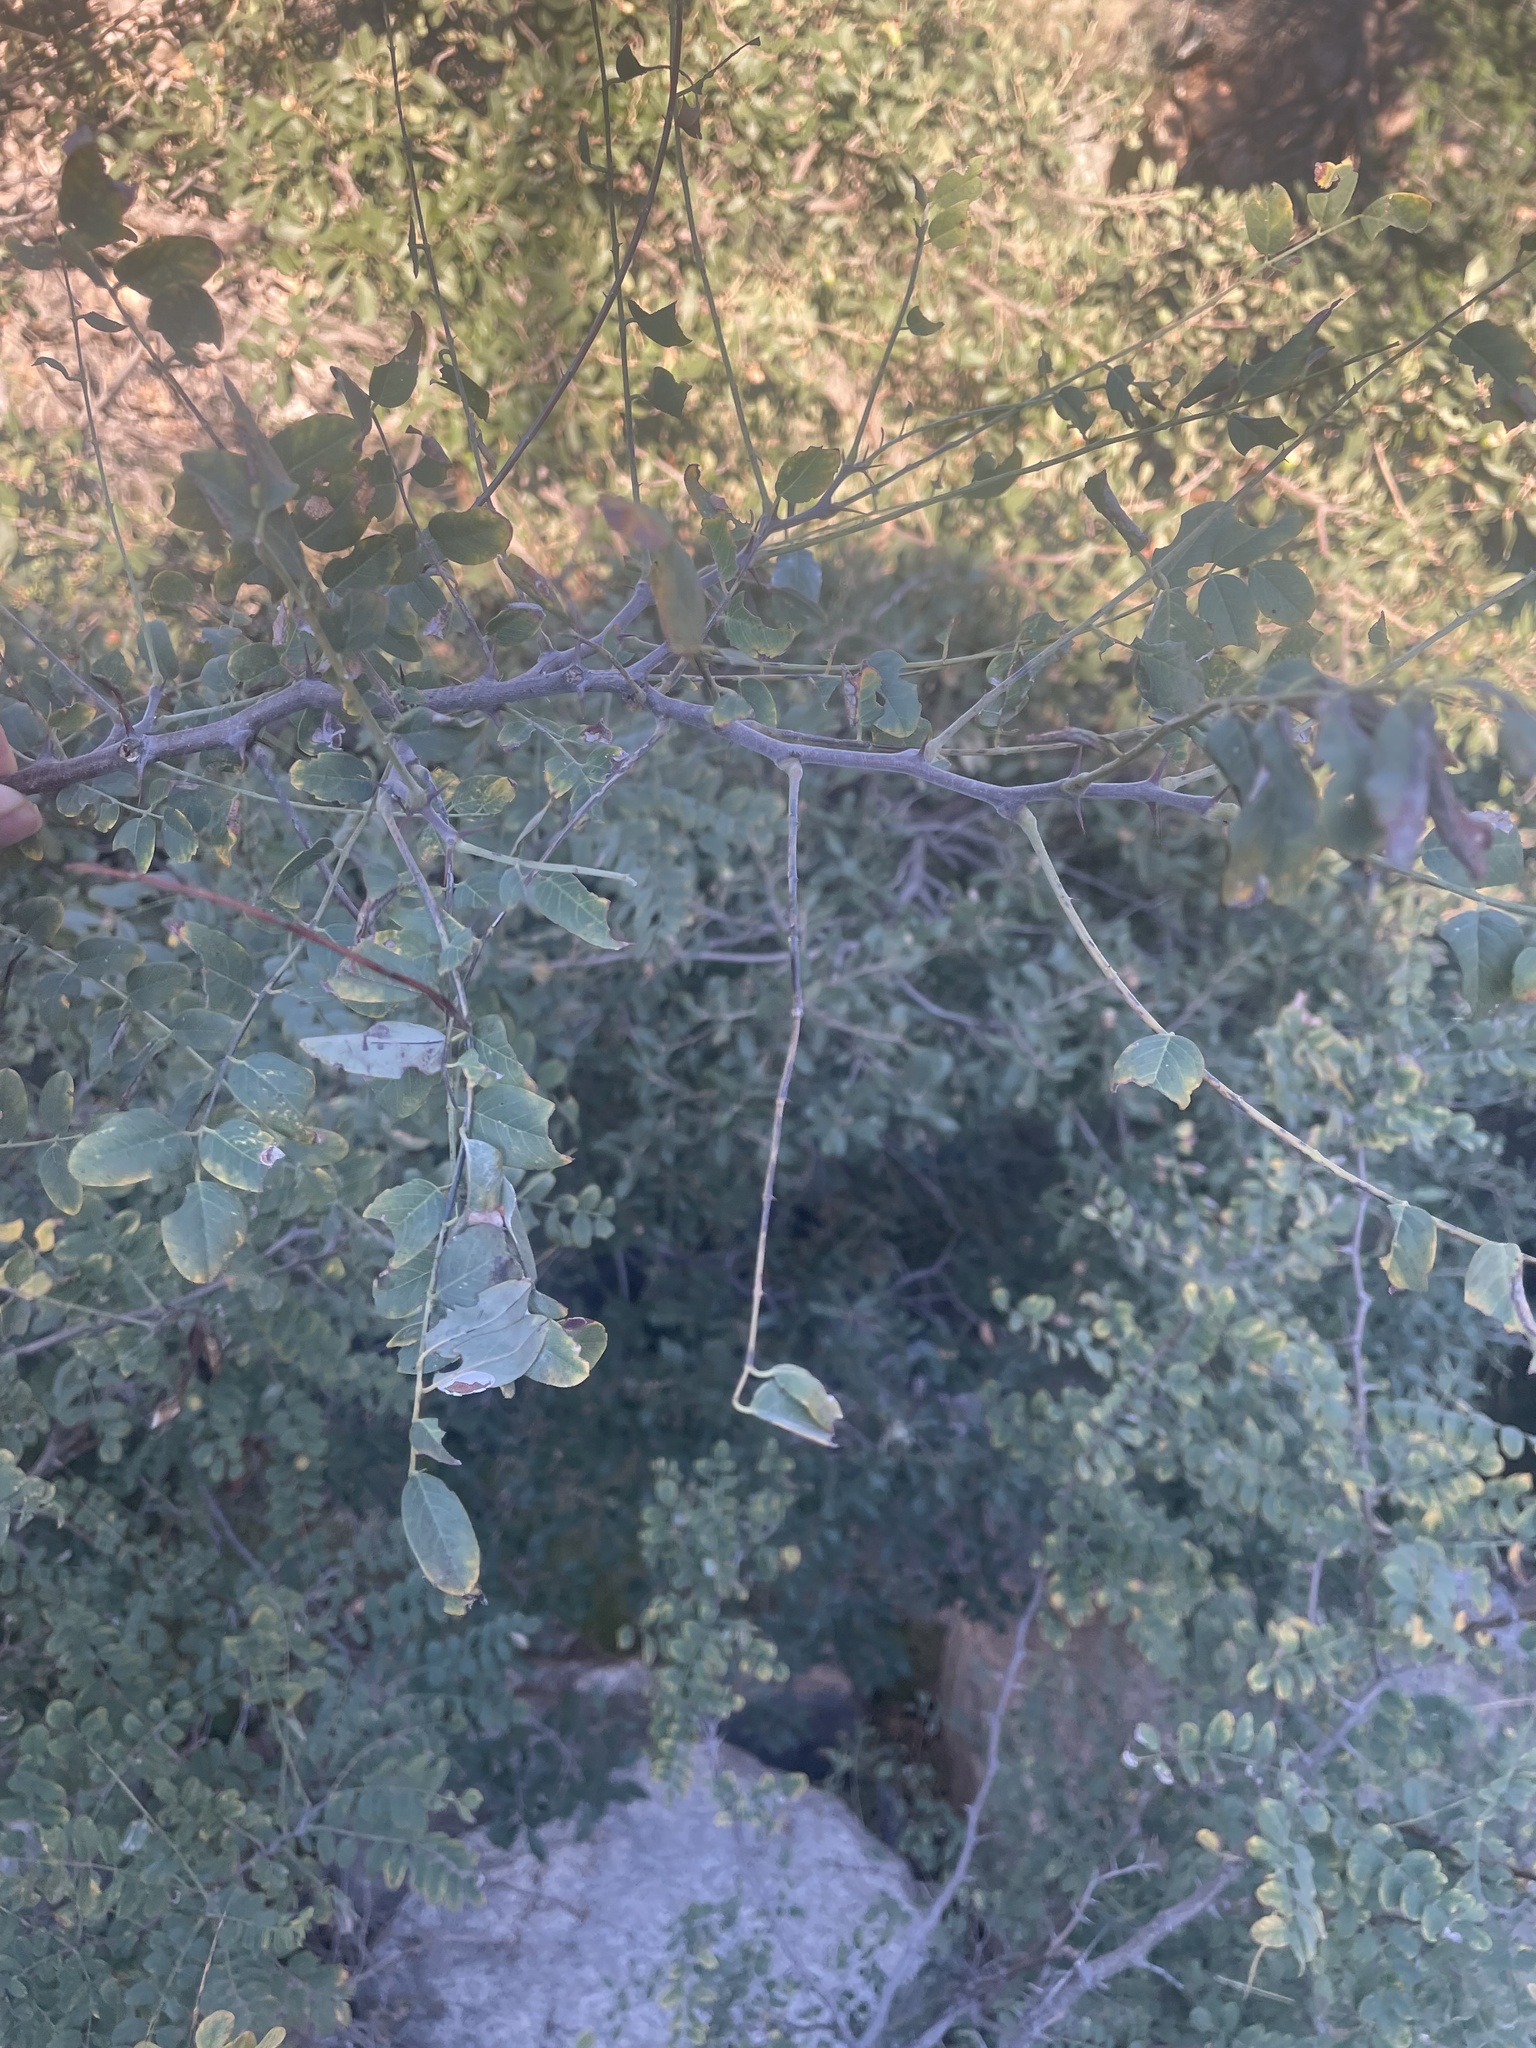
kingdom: Plantae
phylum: Tracheophyta
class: Magnoliopsida
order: Fabales
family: Fabaceae
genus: Robinia
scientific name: Robinia neomexicana
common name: New mexico locust
